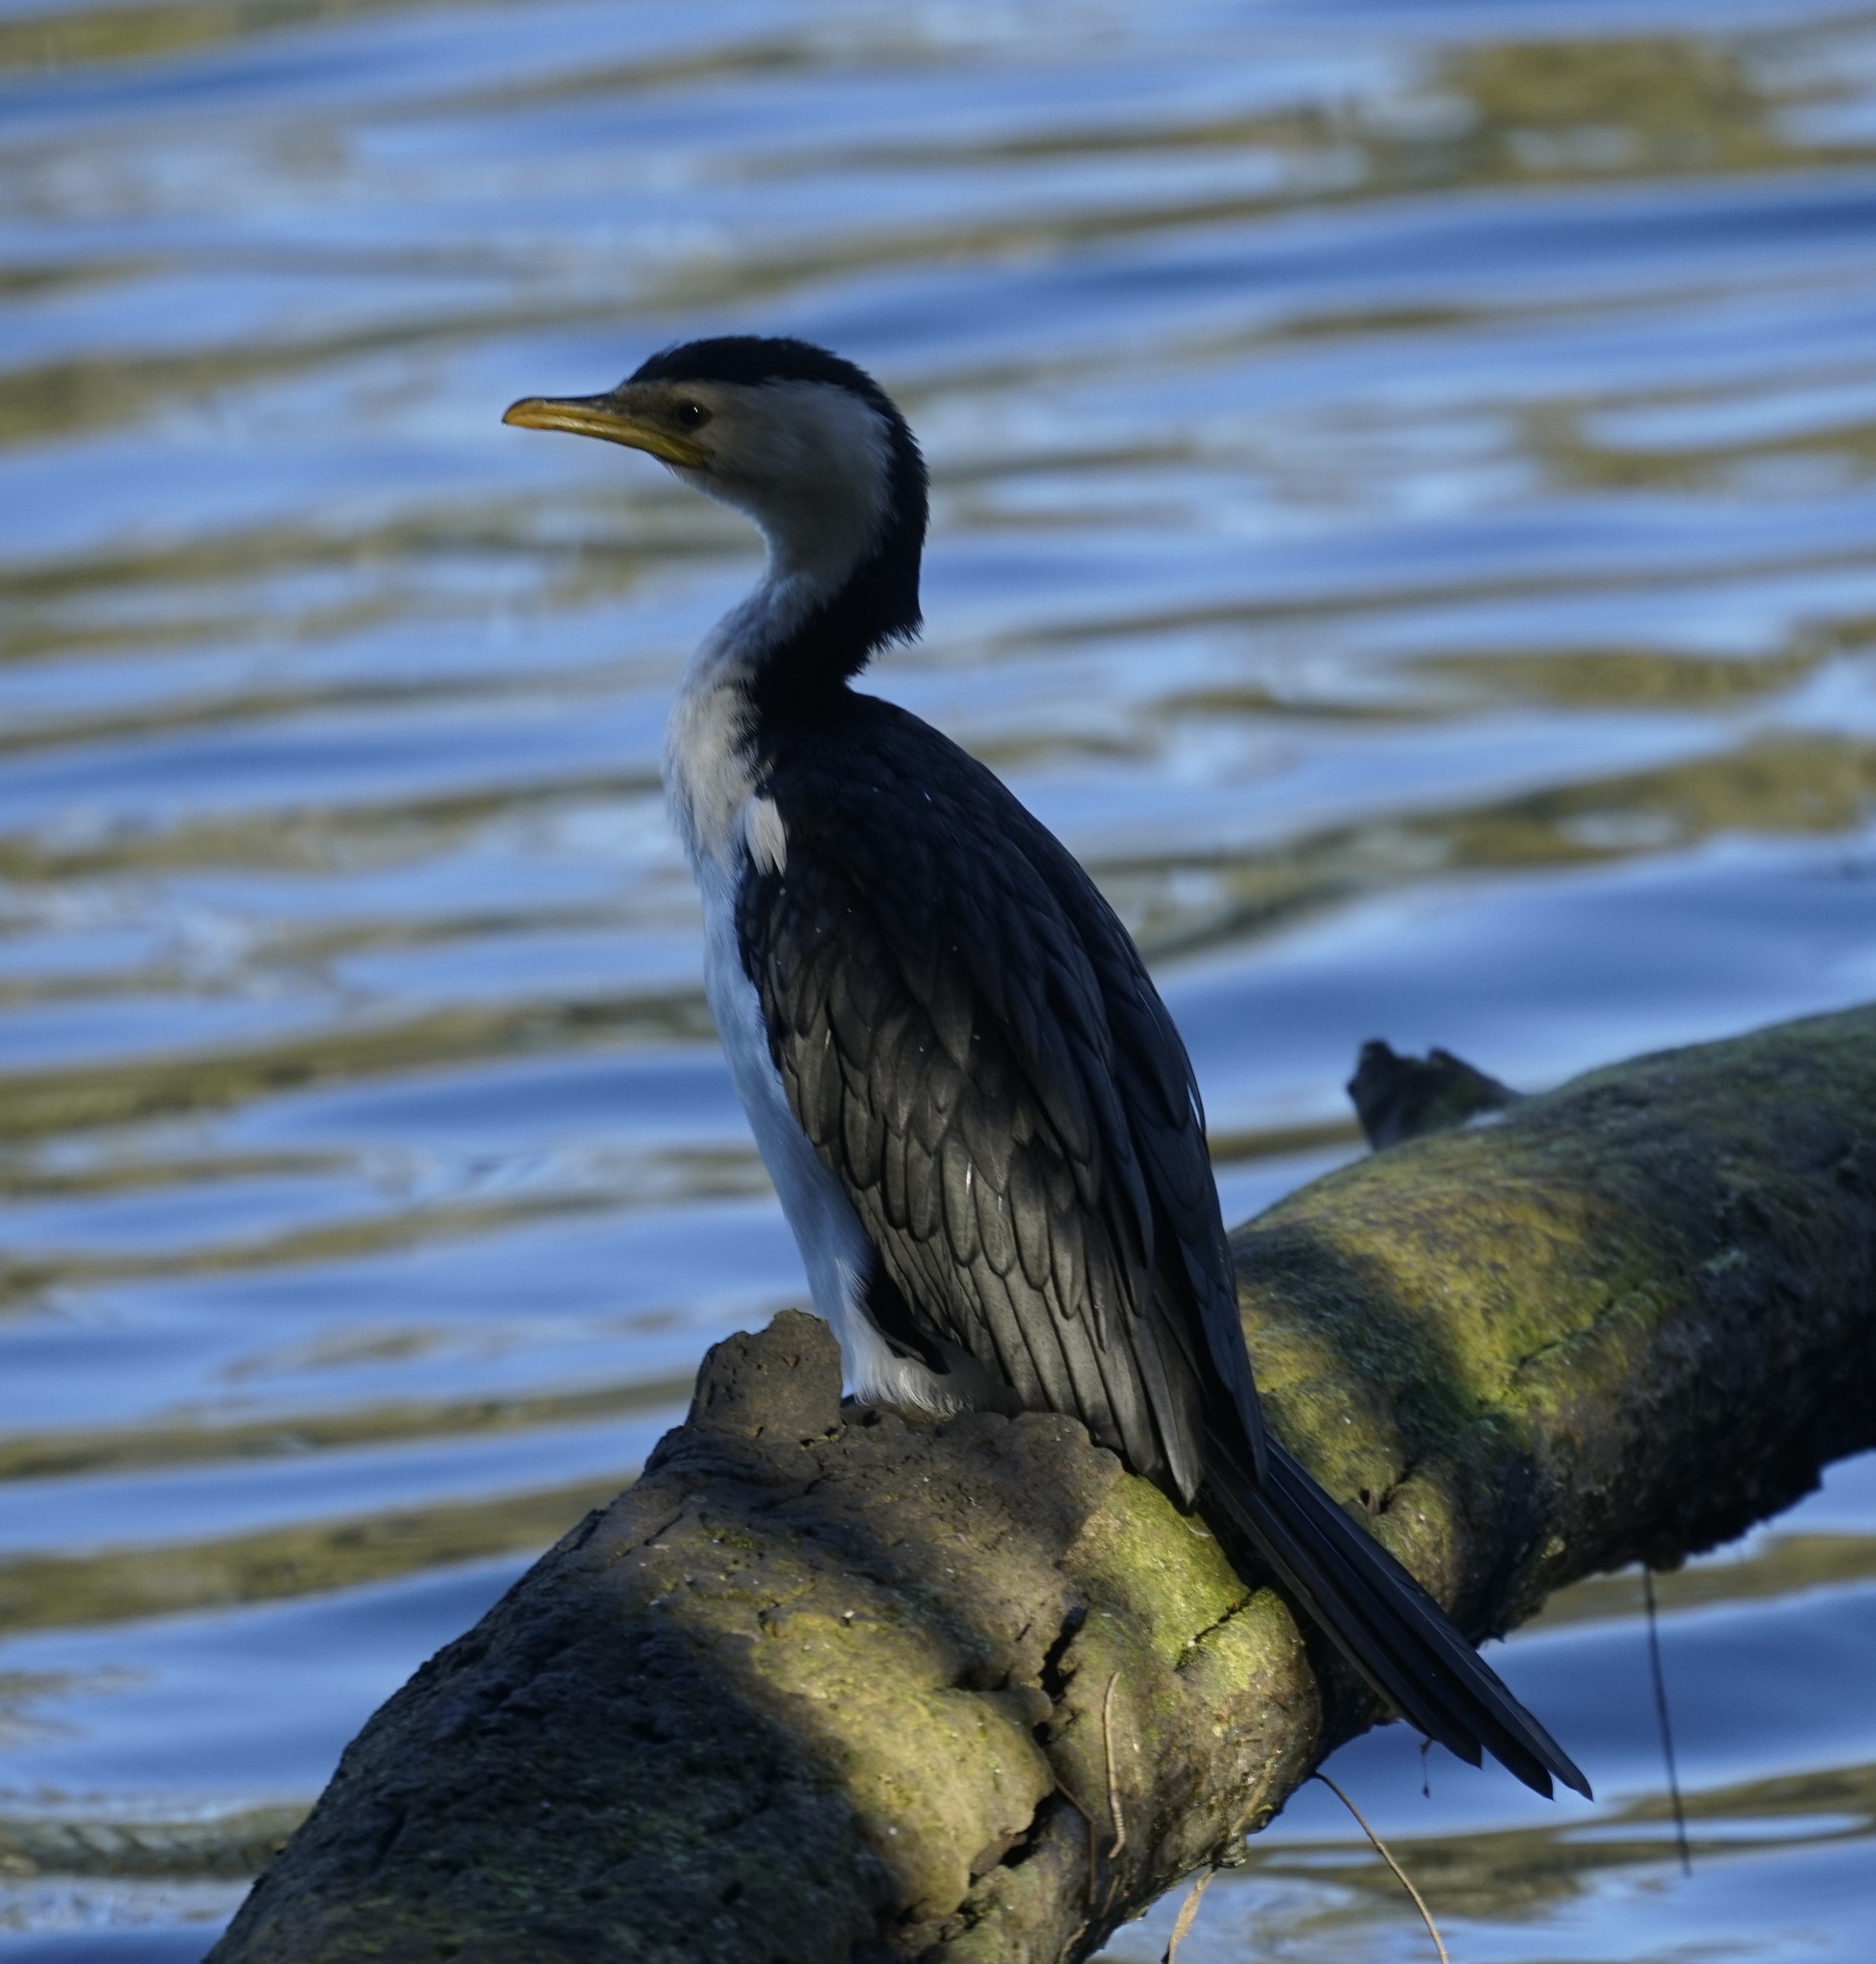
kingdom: Animalia
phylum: Chordata
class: Aves
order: Suliformes
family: Phalacrocoracidae
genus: Microcarbo
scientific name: Microcarbo melanoleucos
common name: Little pied cormorant
